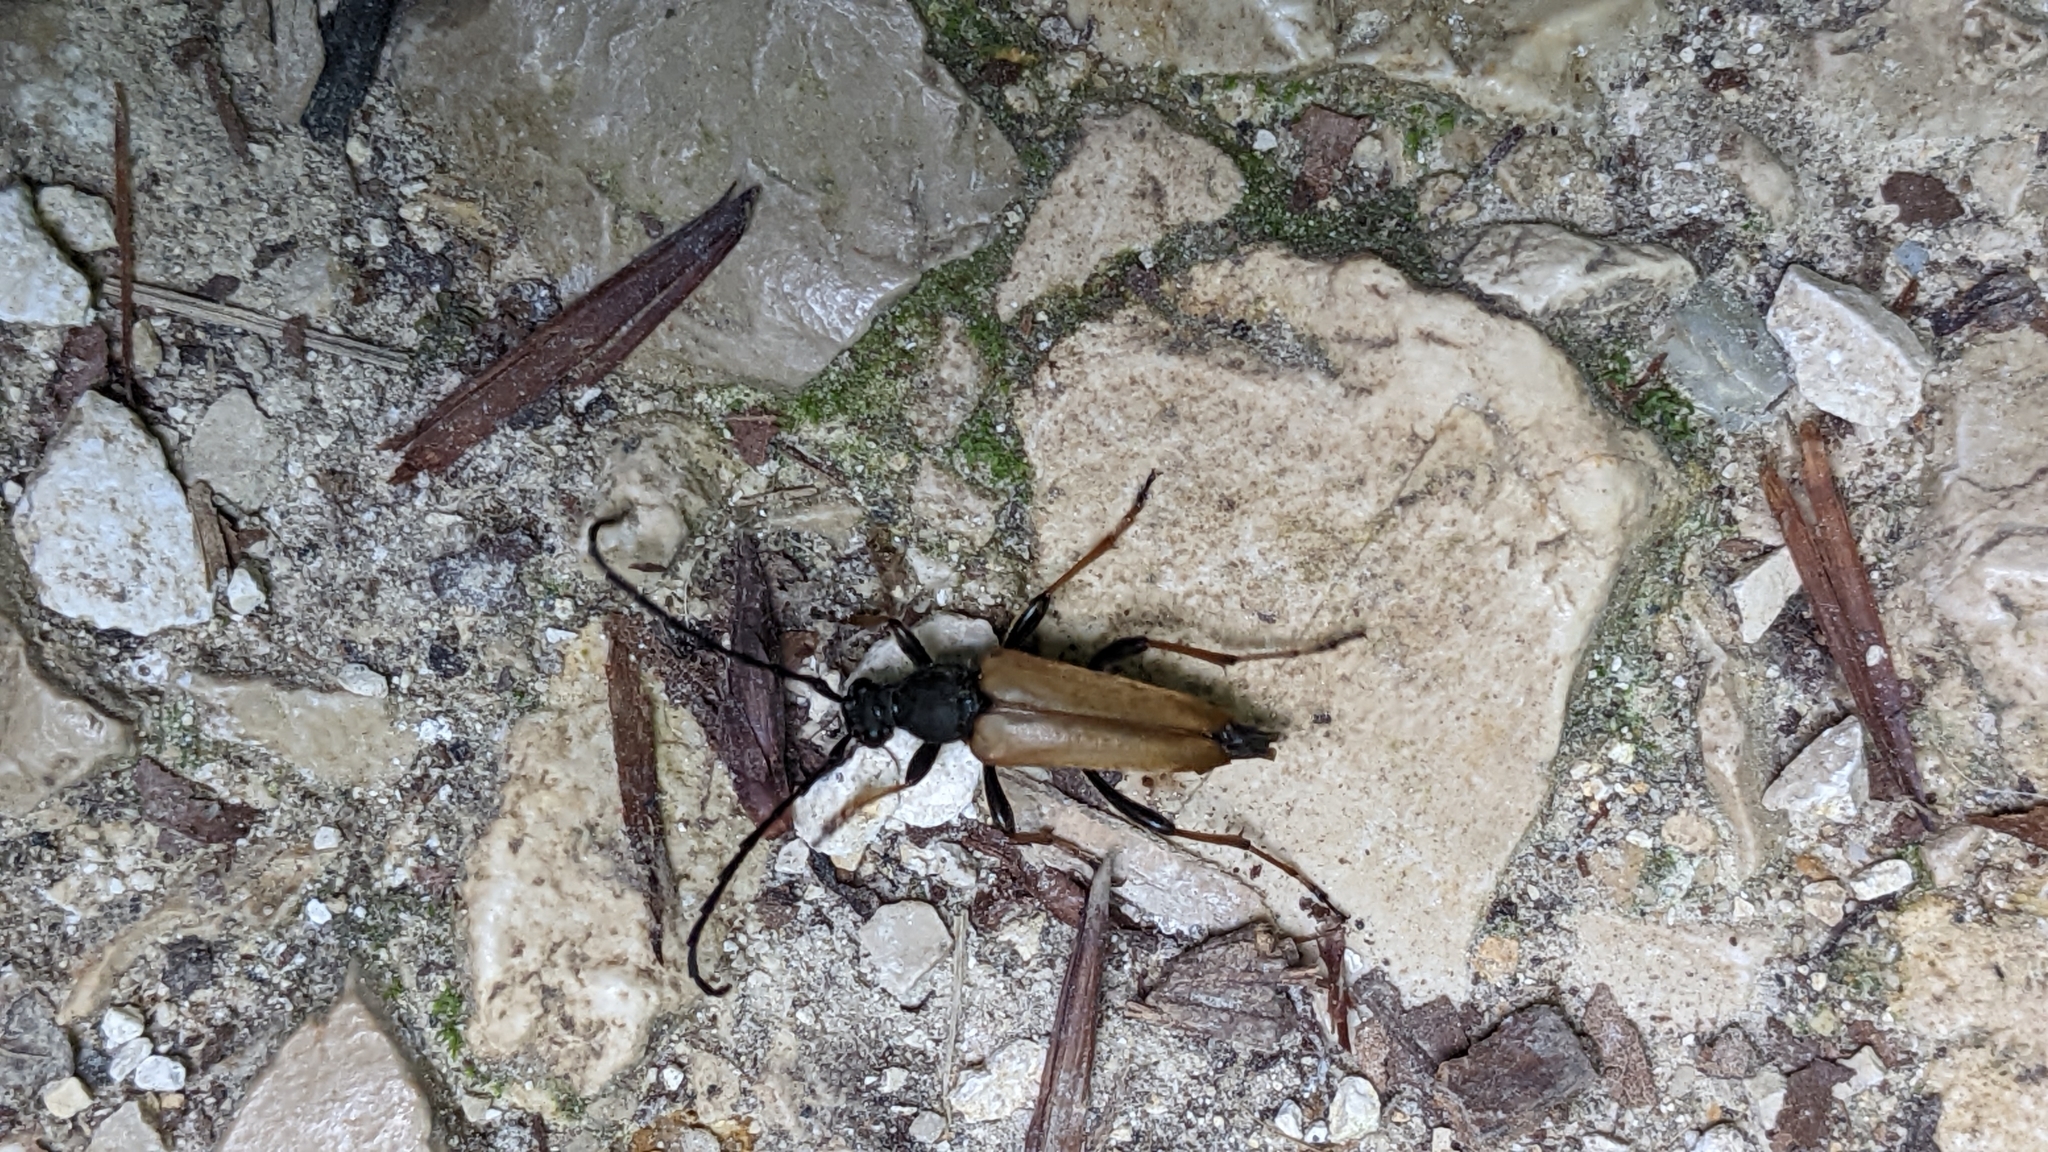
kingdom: Animalia
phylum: Arthropoda
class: Insecta
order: Coleoptera
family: Cerambycidae
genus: Stictoleptura
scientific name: Stictoleptura rubra
